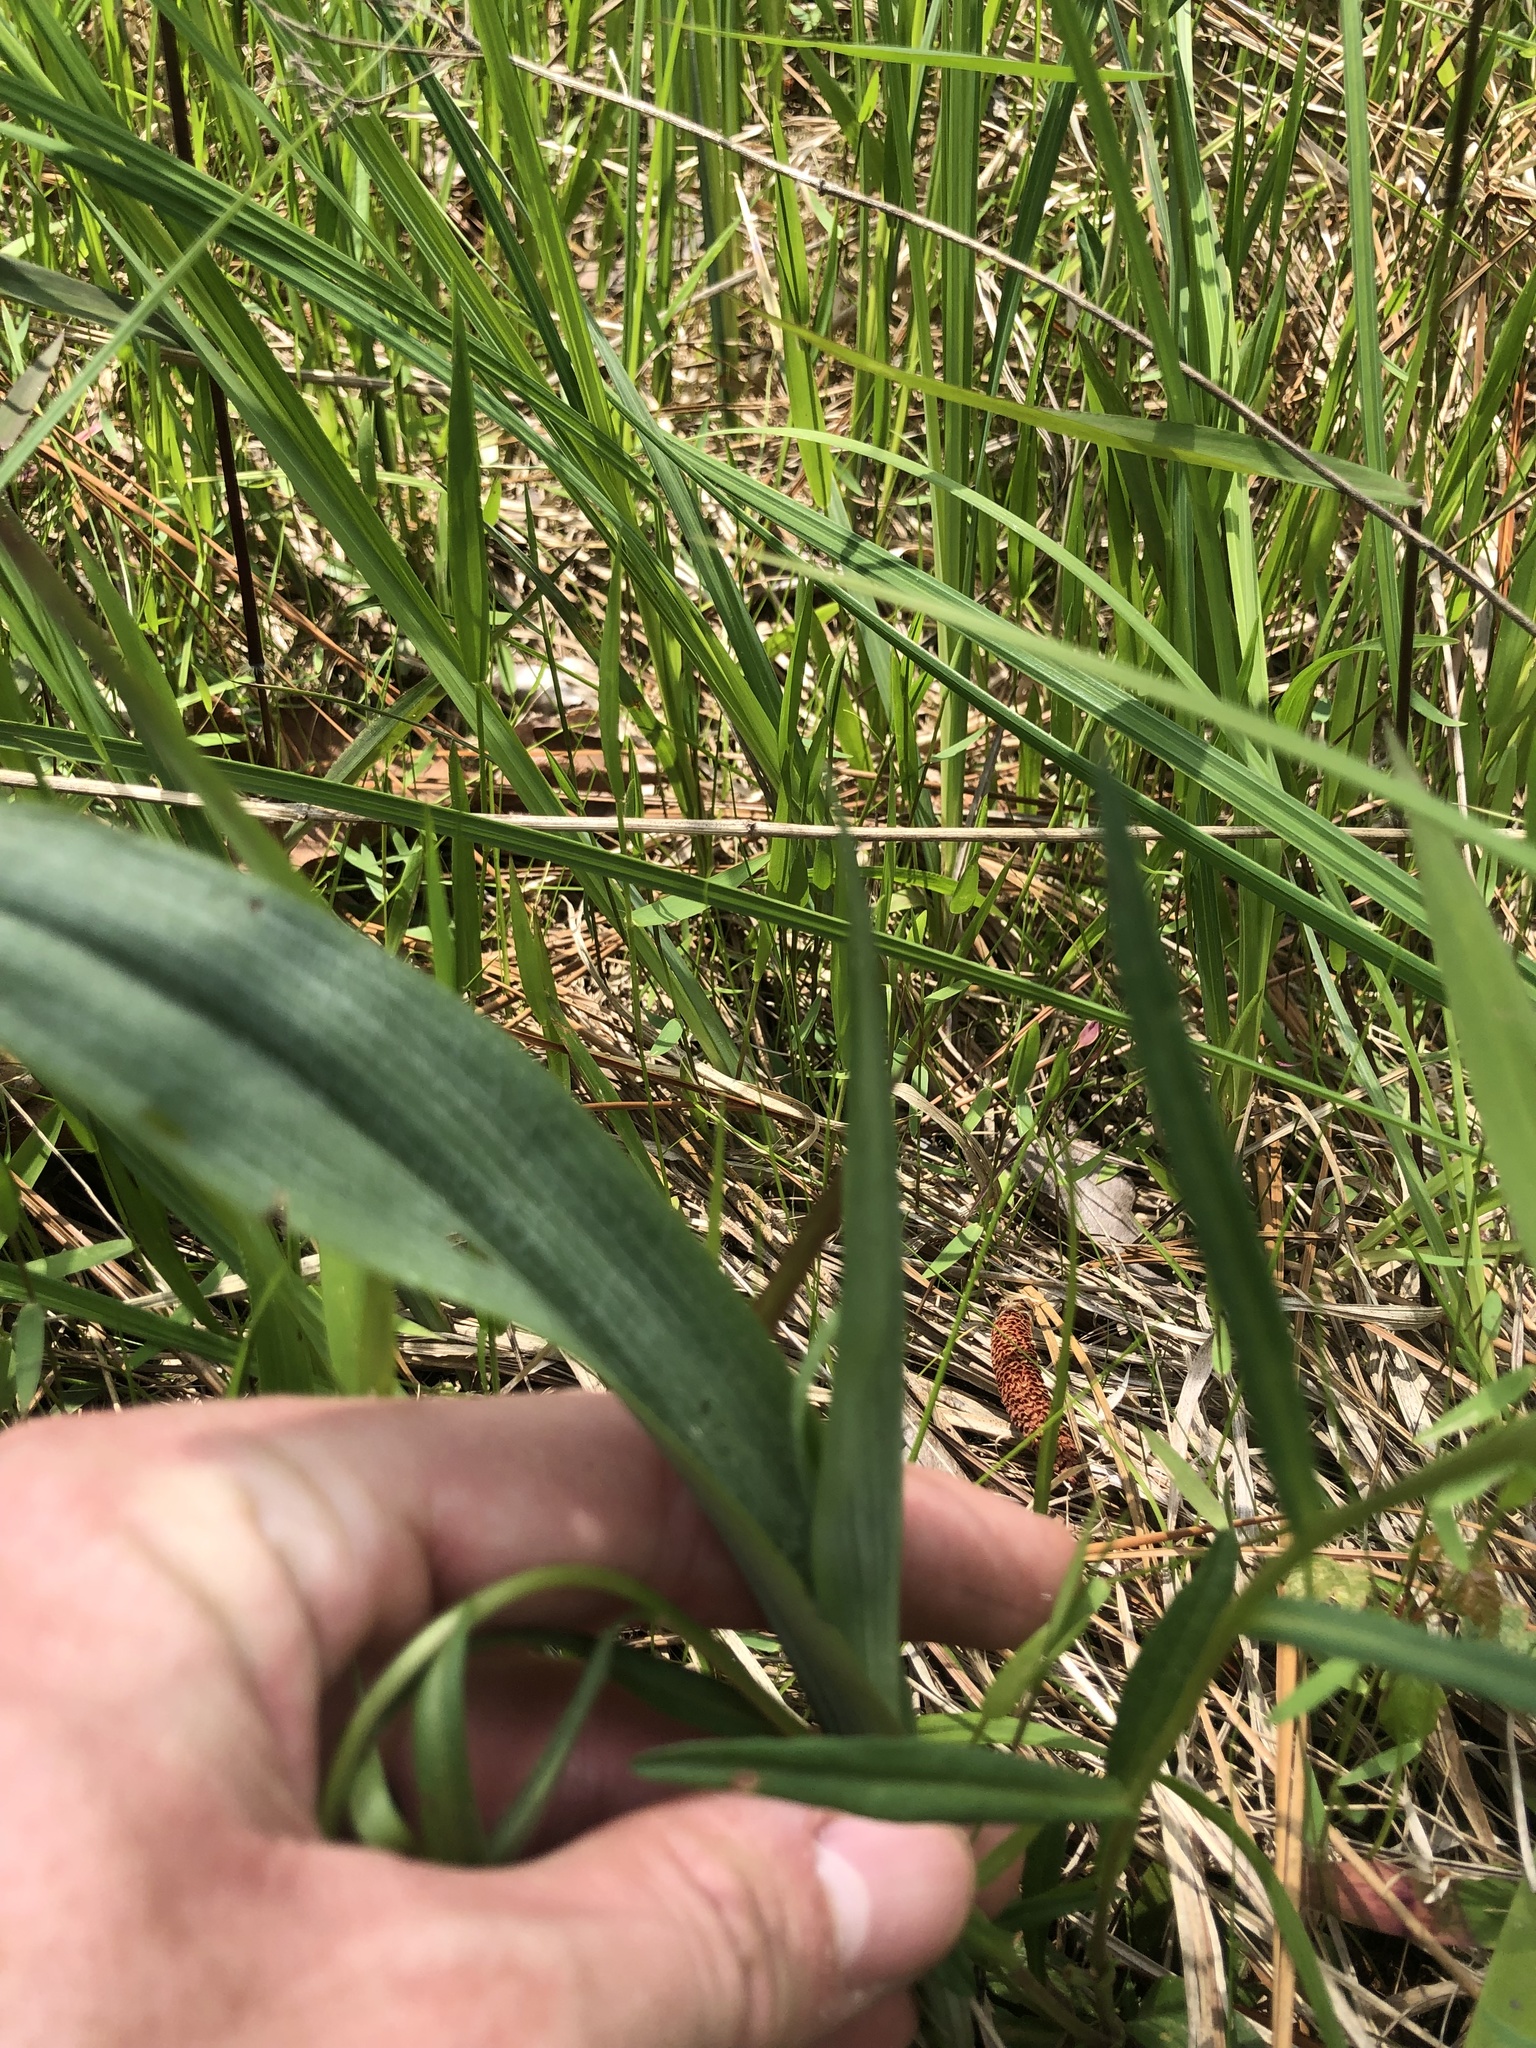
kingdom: Plantae
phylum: Tracheophyta
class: Liliopsida
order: Asparagales
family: Orchidaceae
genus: Platanthera
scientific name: Platanthera lacera
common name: Green fringed orchid
